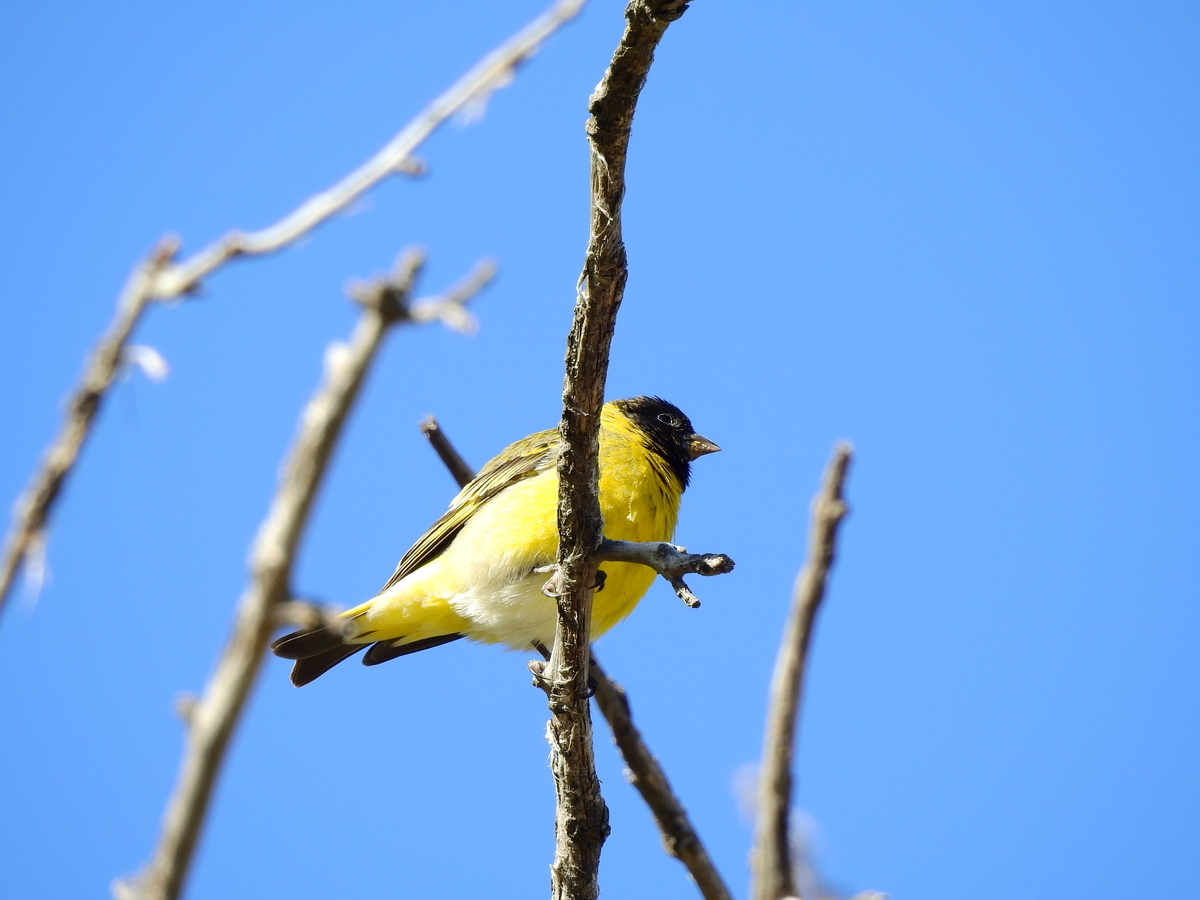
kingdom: Animalia
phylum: Chordata
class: Aves
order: Passeriformes
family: Fringillidae
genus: Spinus
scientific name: Spinus magellanicus
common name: Hooded siskin
